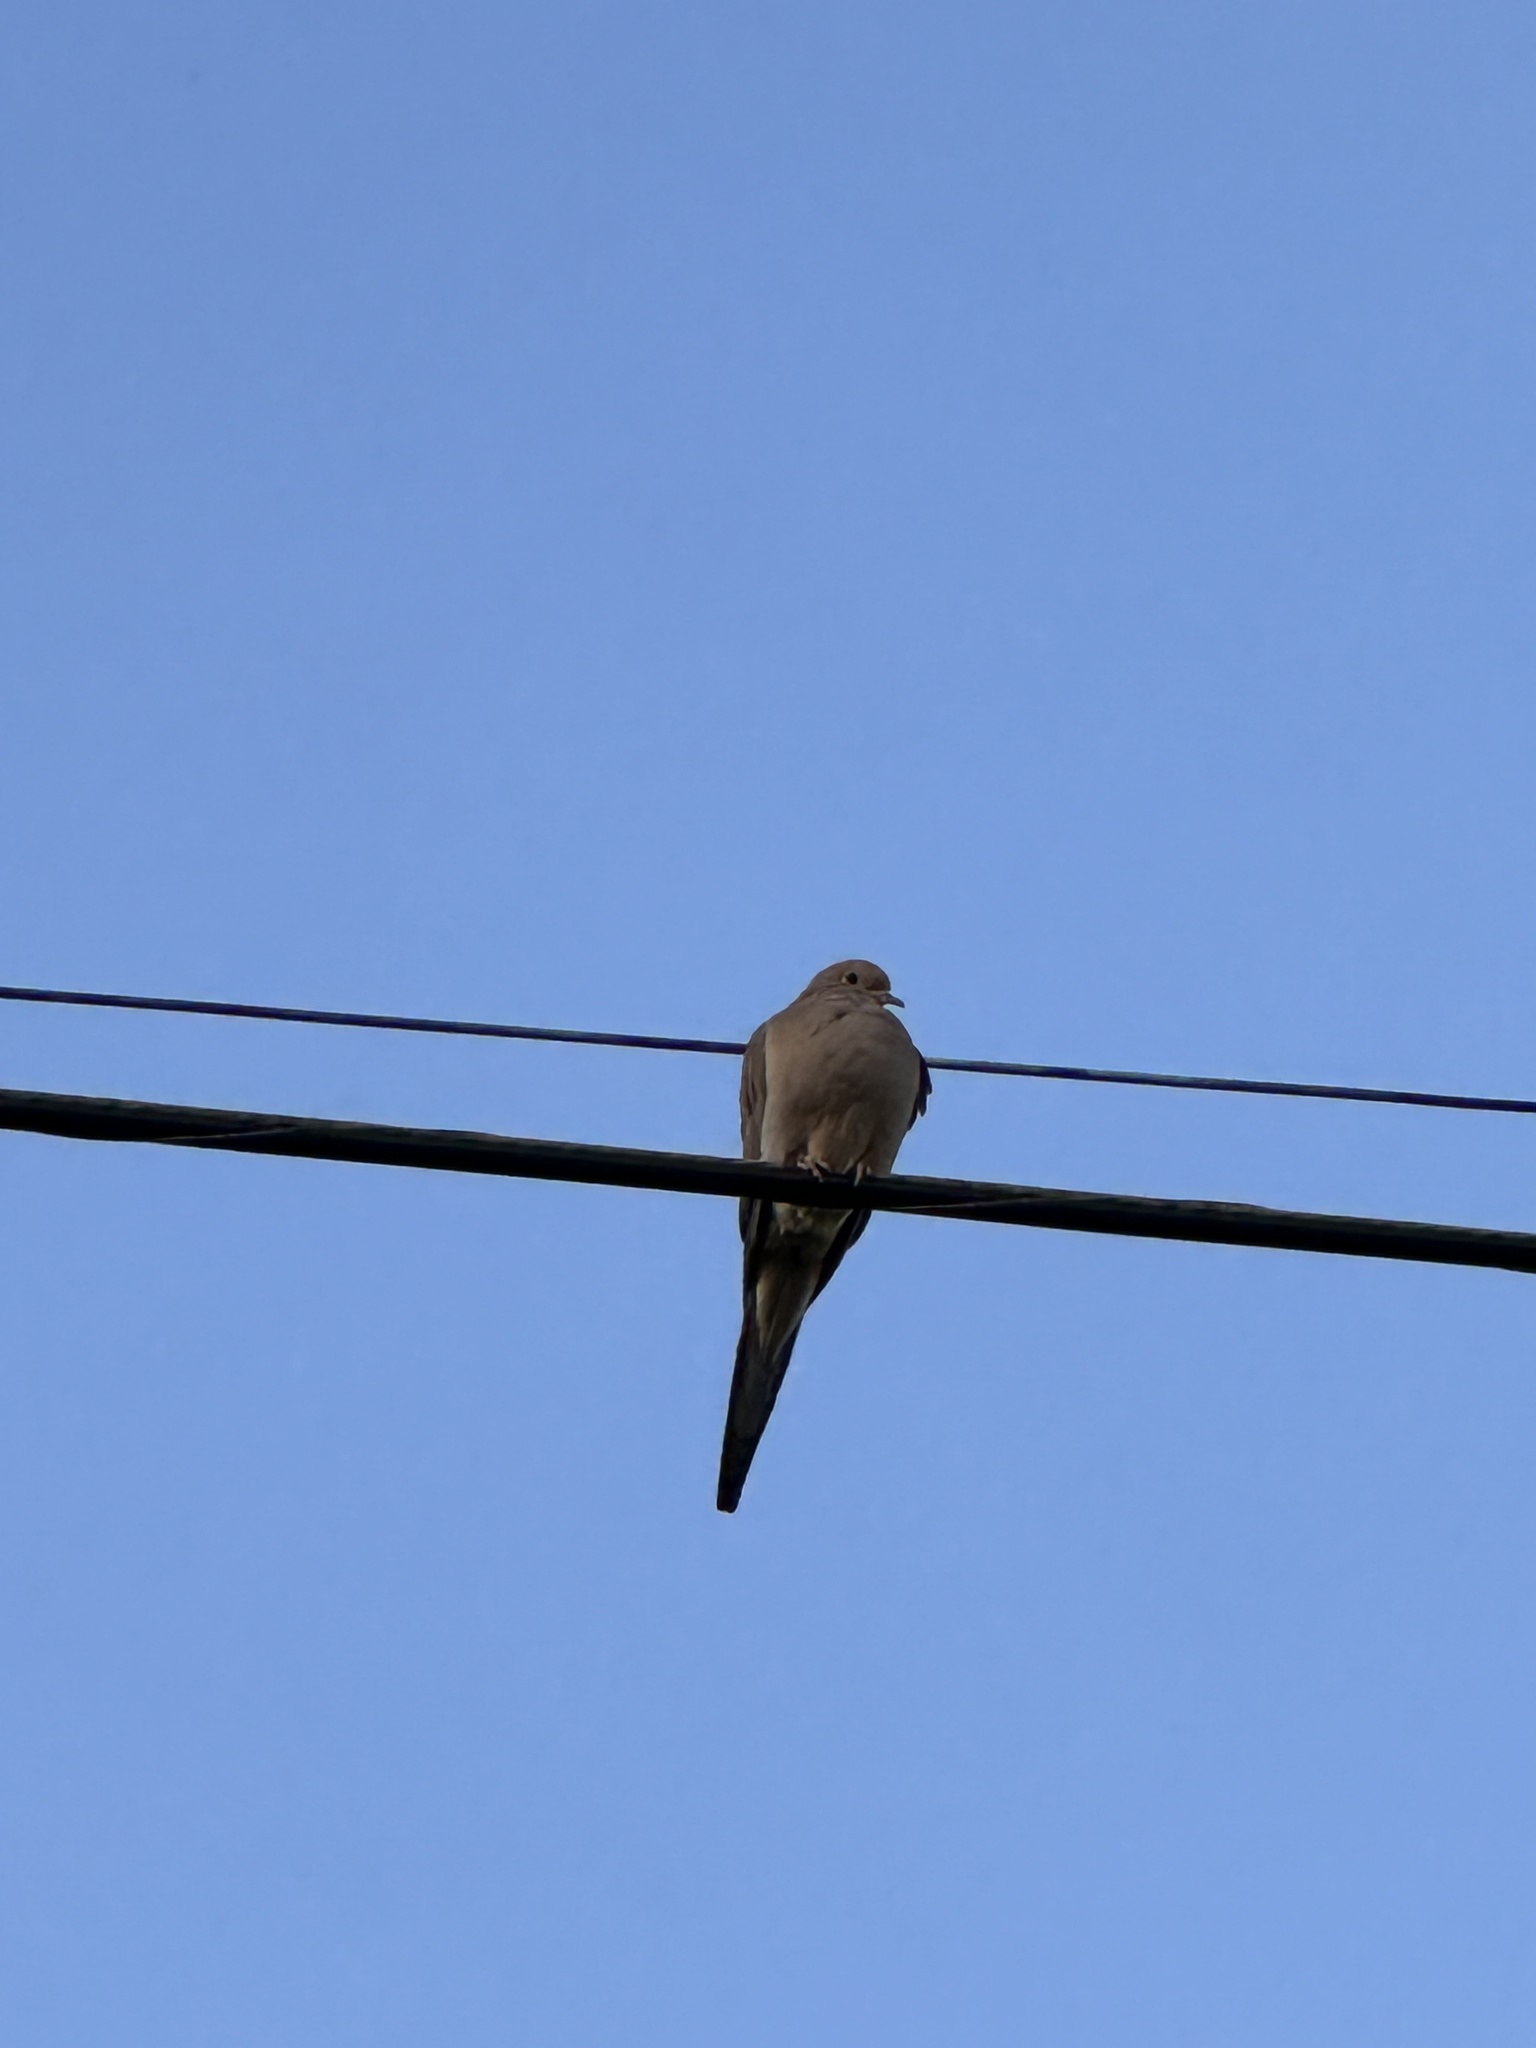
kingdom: Animalia
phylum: Chordata
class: Aves
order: Columbiformes
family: Columbidae
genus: Zenaida
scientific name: Zenaida macroura
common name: Mourning dove
